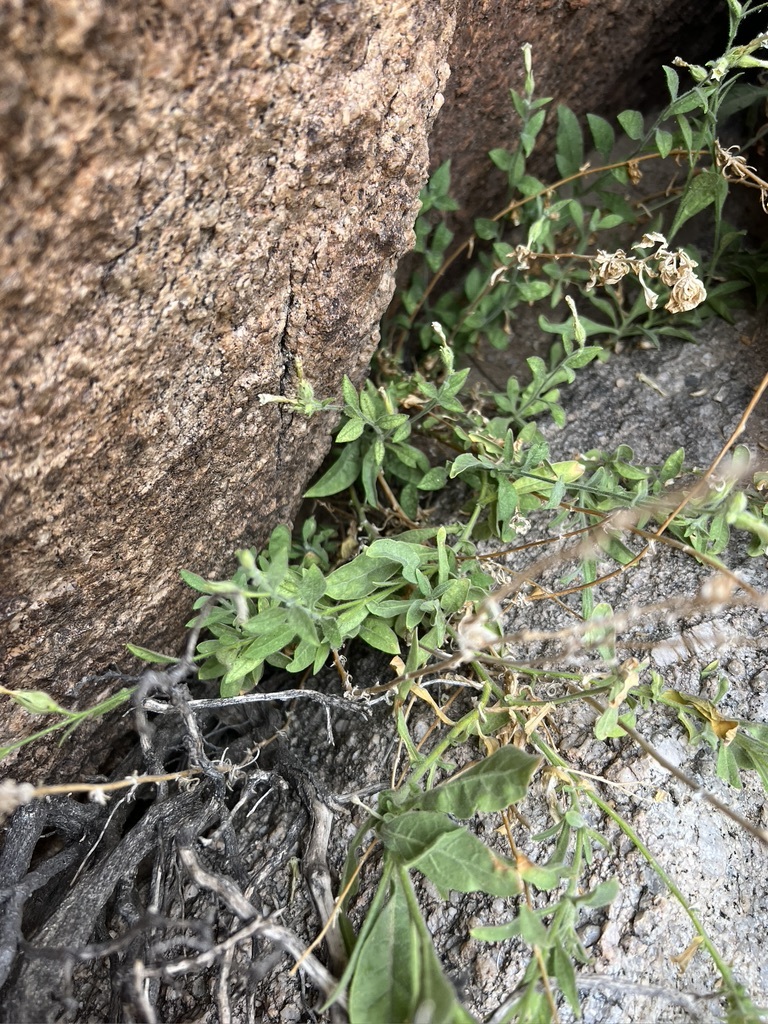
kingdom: Plantae
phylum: Tracheophyta
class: Magnoliopsida
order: Solanales
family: Solanaceae
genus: Nicotiana
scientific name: Nicotiana obtusifolia
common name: Desert tobacco
